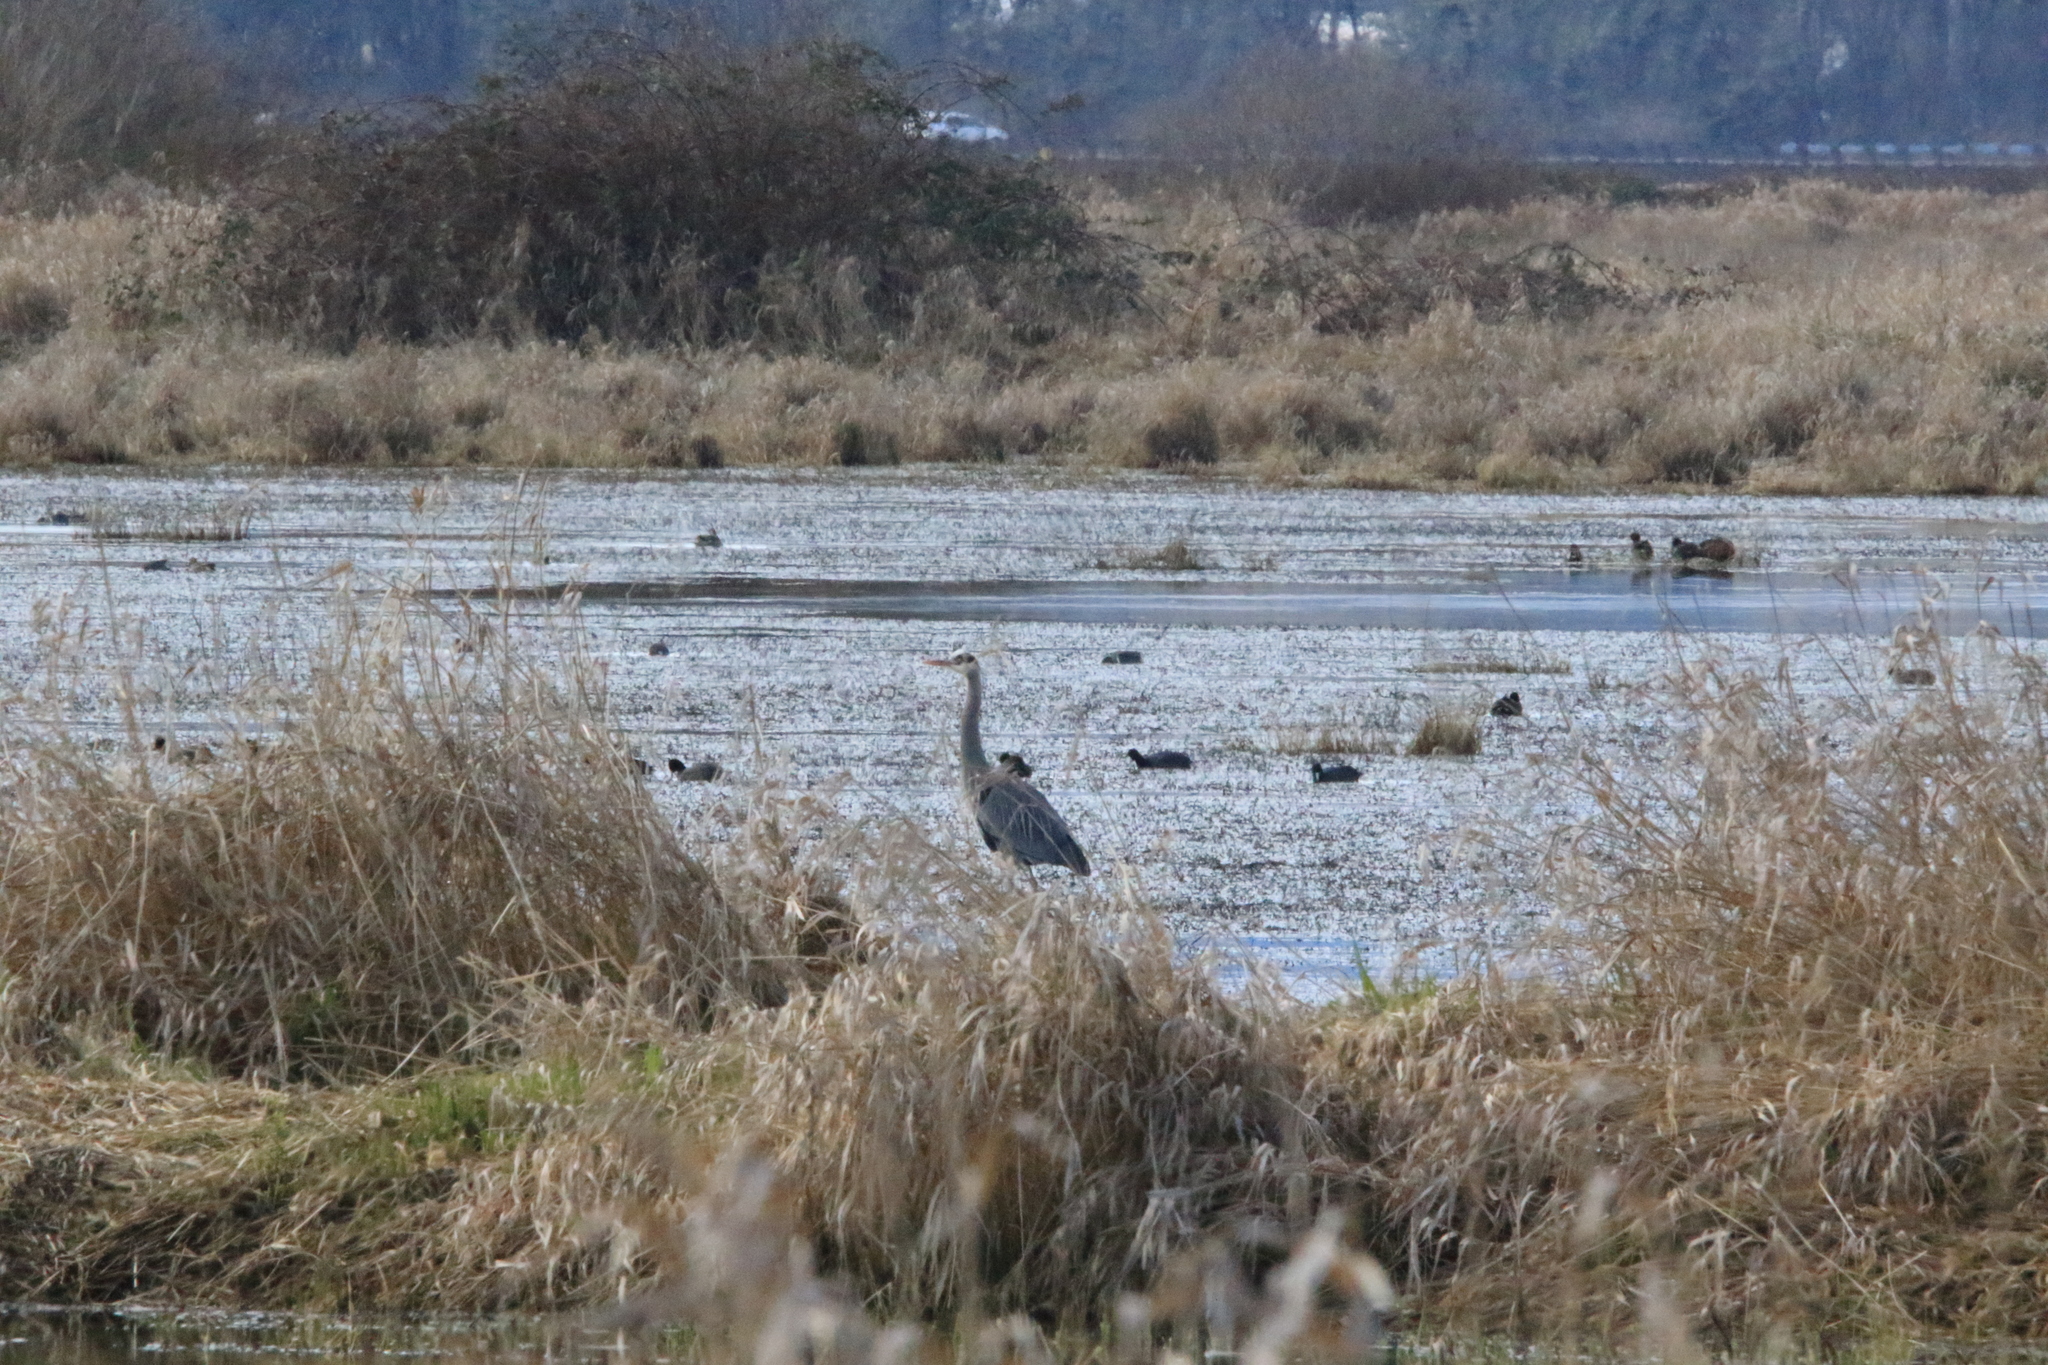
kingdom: Animalia
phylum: Chordata
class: Aves
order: Pelecaniformes
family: Ardeidae
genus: Ardea
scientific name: Ardea herodias
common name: Great blue heron
